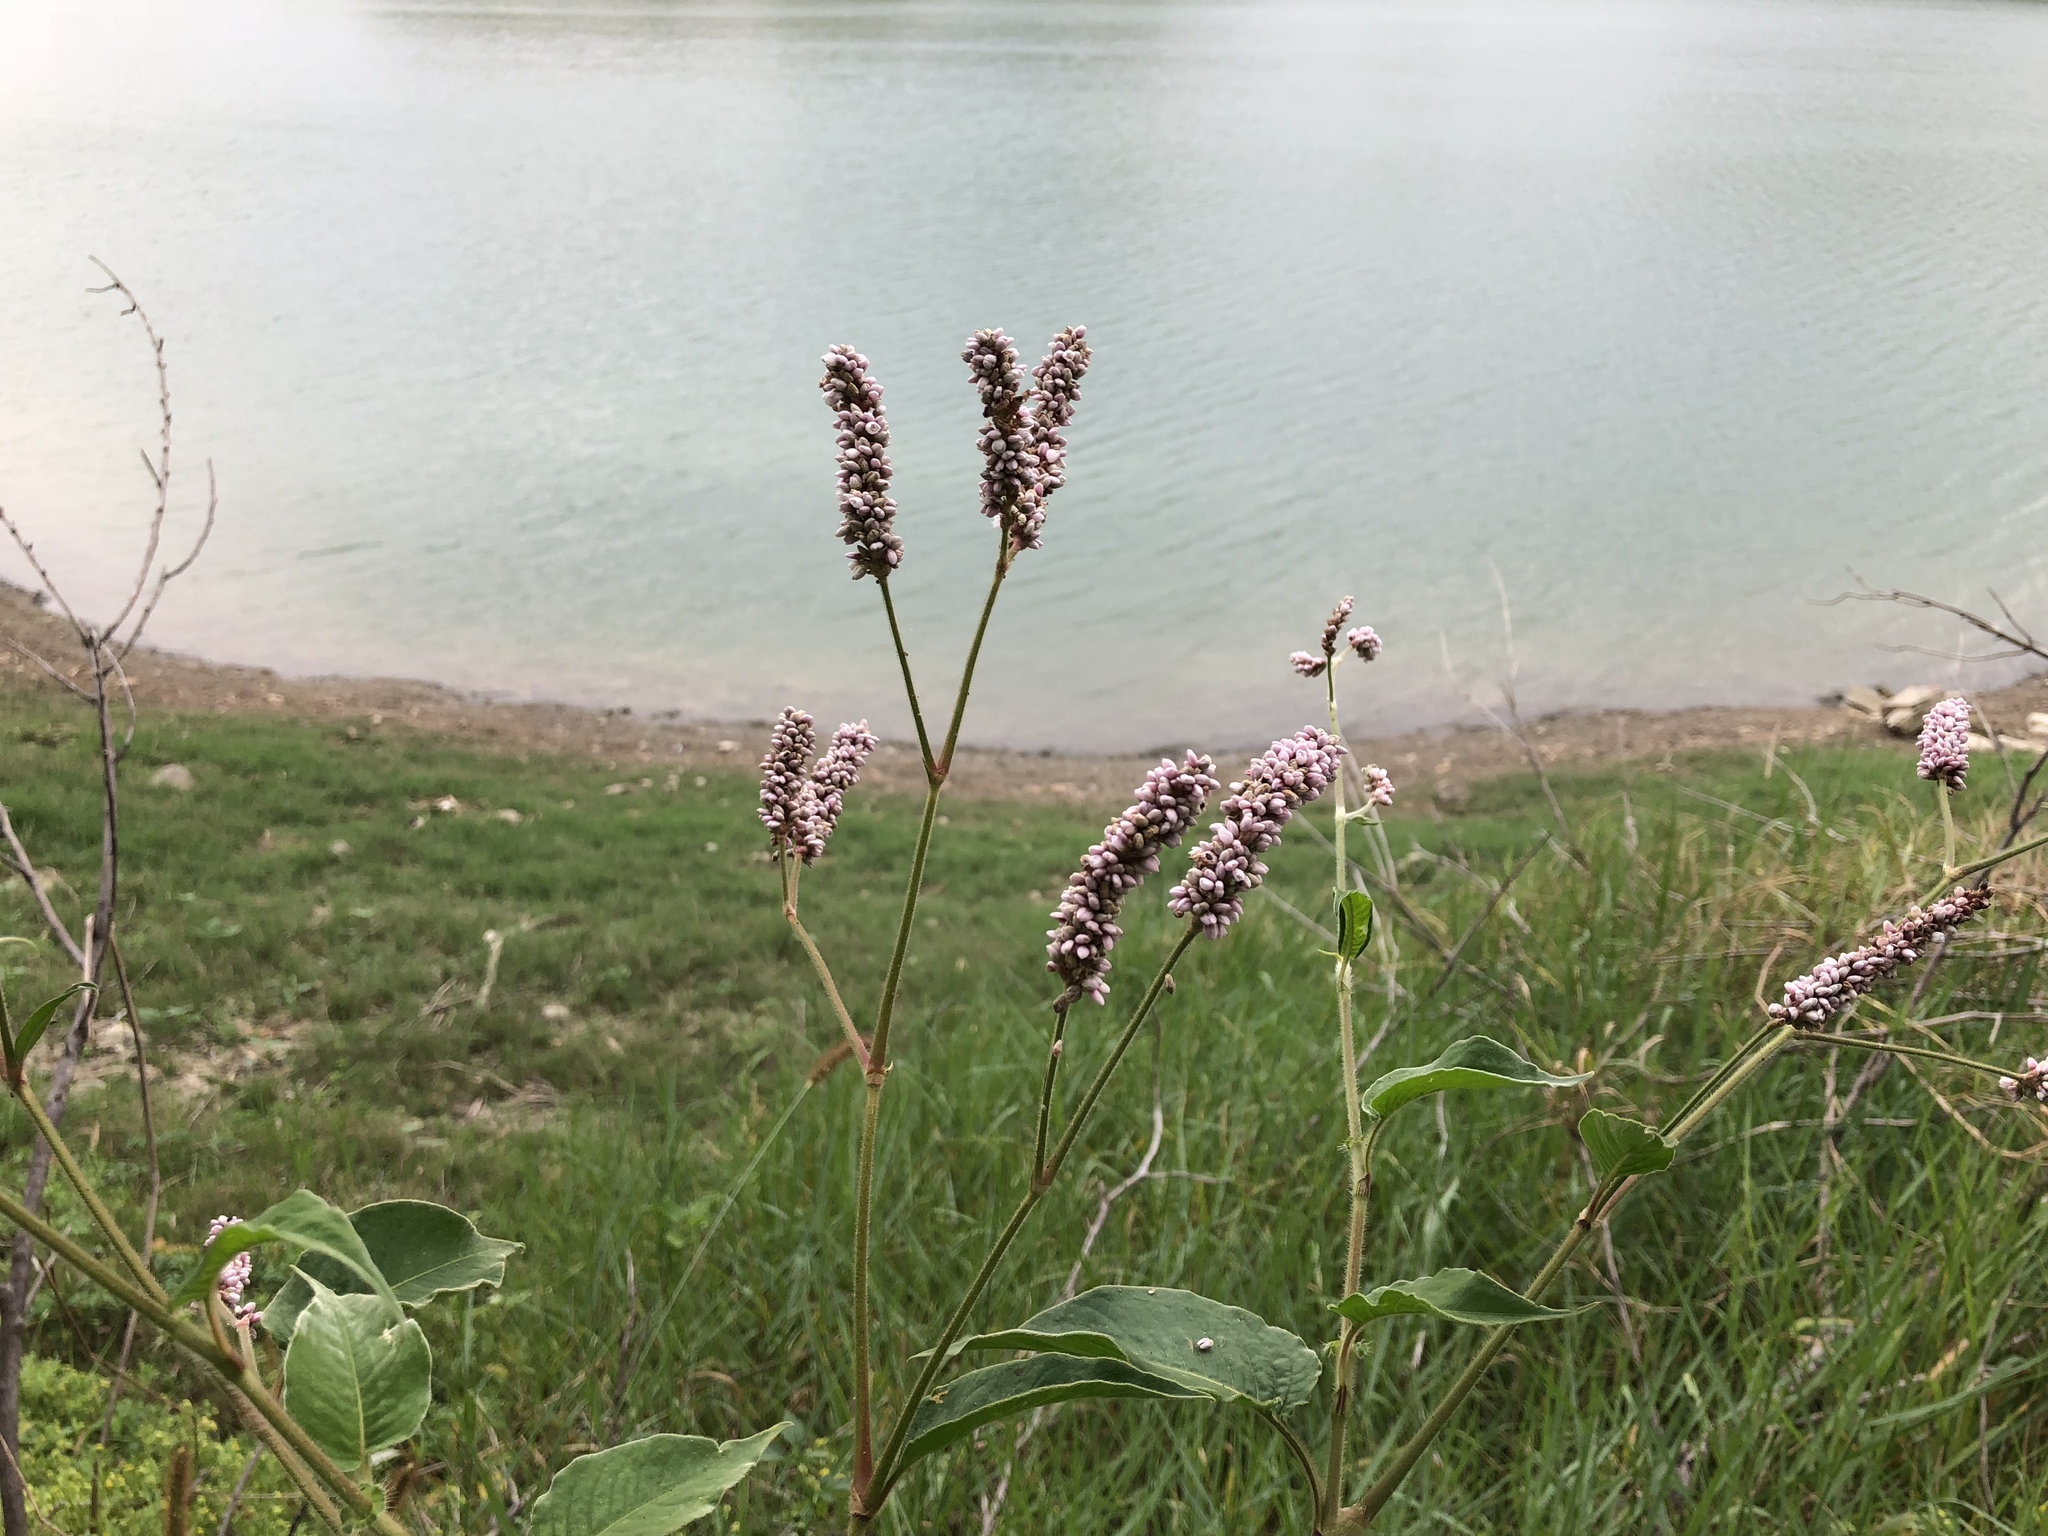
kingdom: Plantae
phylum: Tracheophyta
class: Magnoliopsida
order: Caryophyllales
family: Polygonaceae
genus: Persicaria
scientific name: Persicaria orientalis
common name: Kiss-me-over-the-garden-gate
